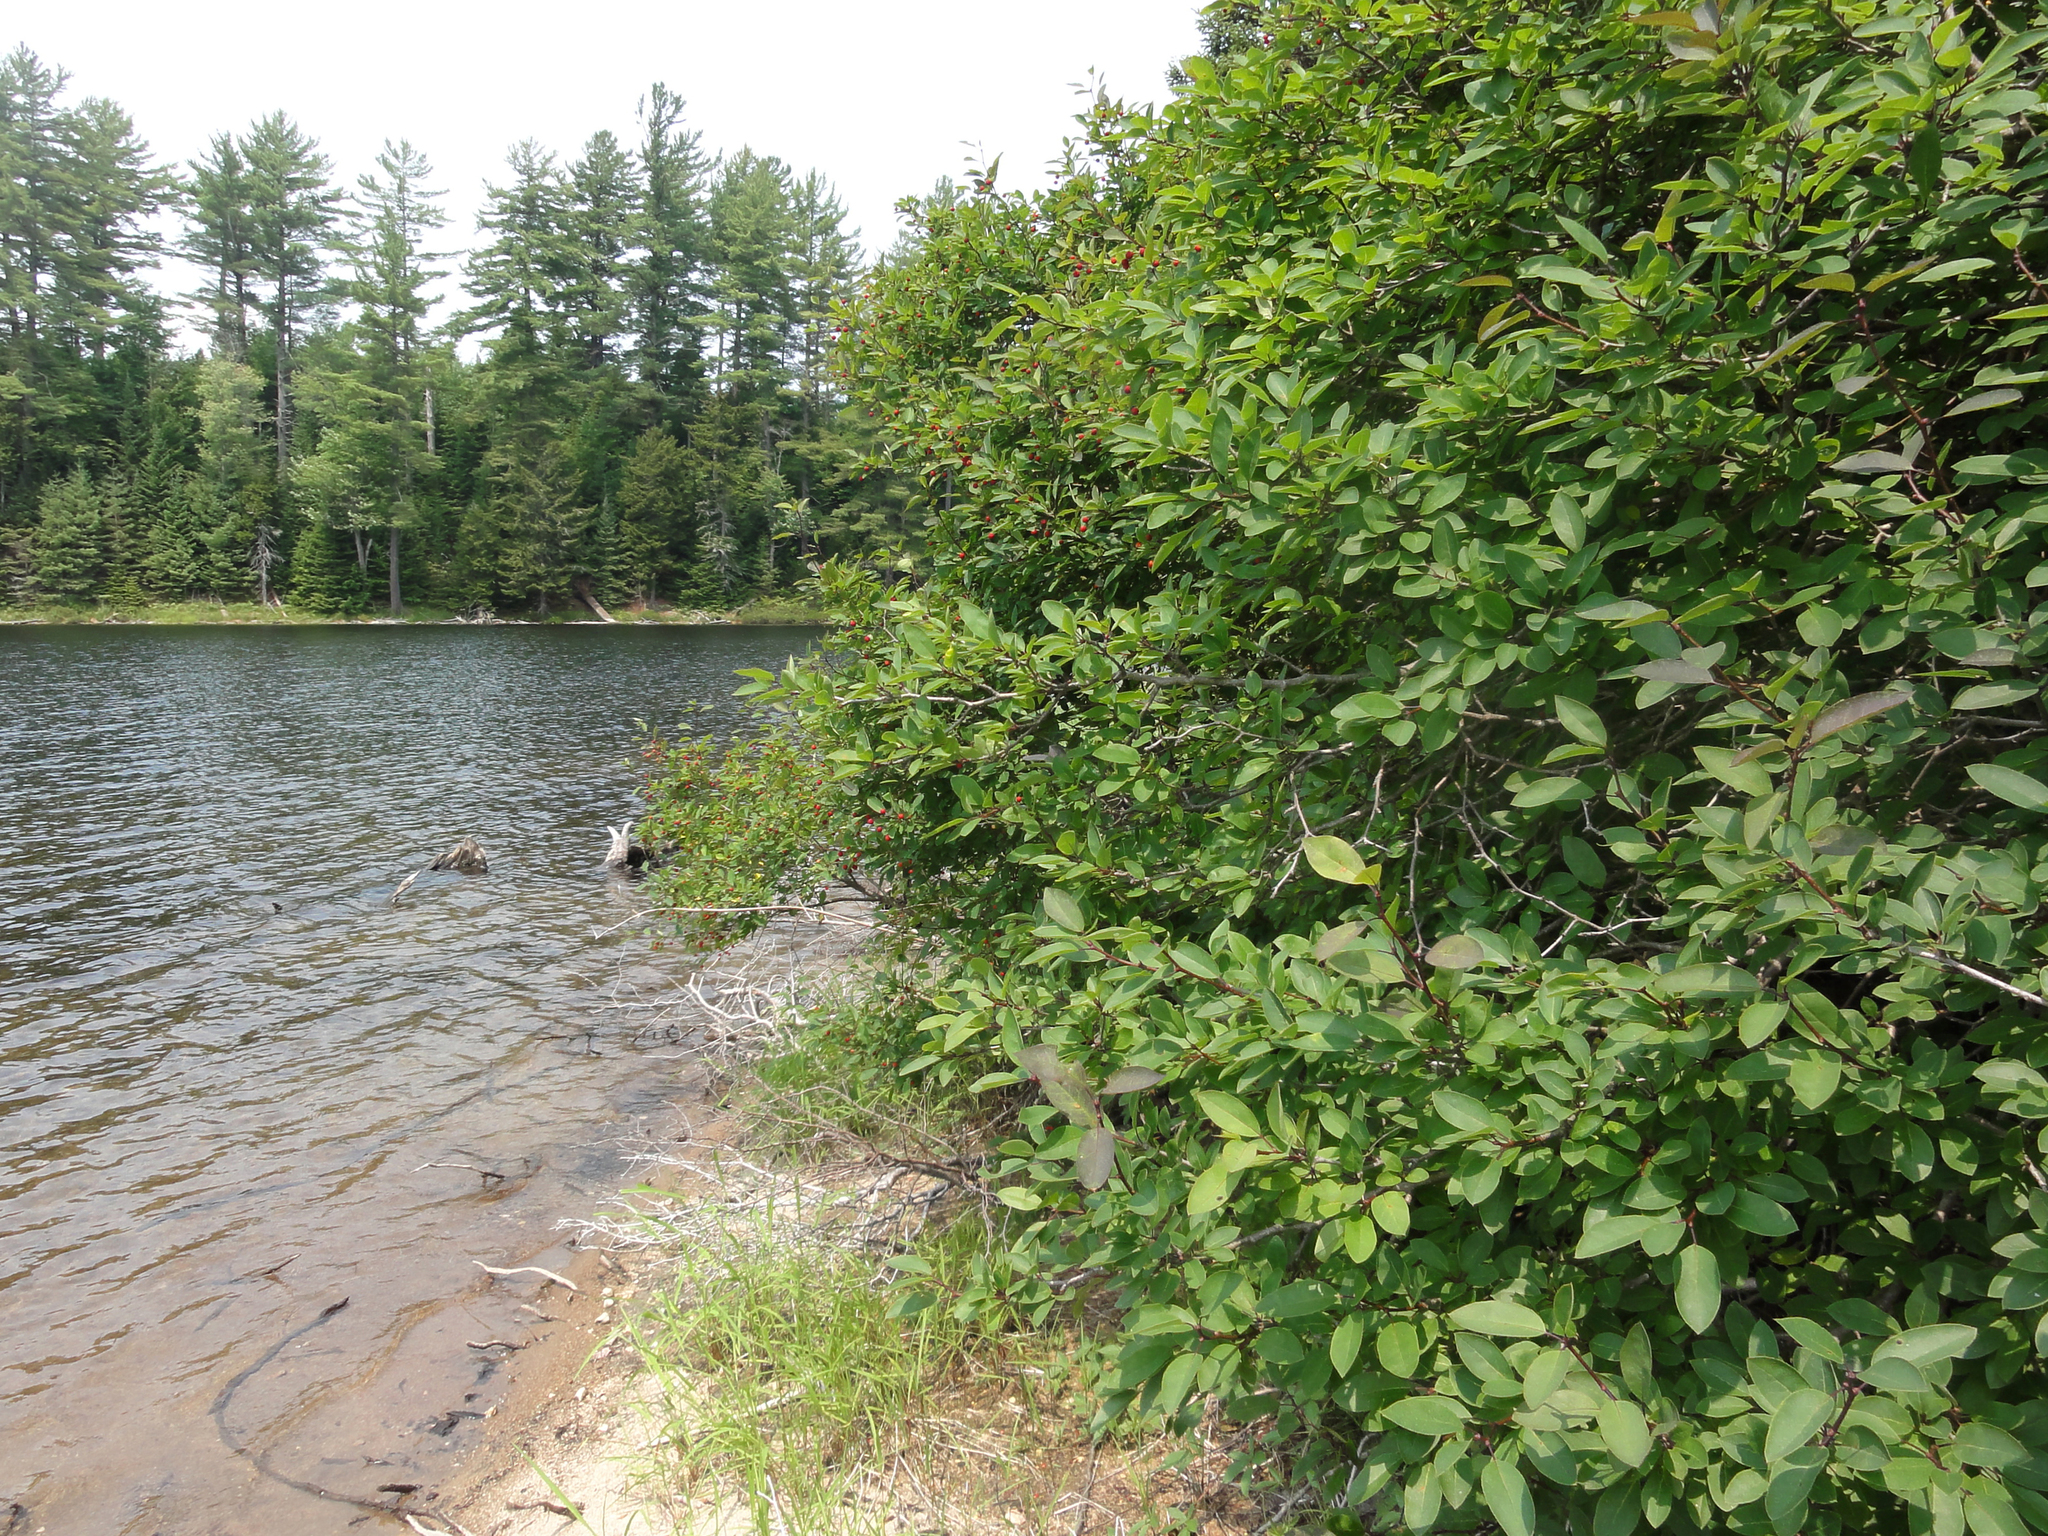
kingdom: Plantae
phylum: Tracheophyta
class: Magnoliopsida
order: Aquifoliales
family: Aquifoliaceae
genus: Ilex
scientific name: Ilex mucronata
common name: Catberry
